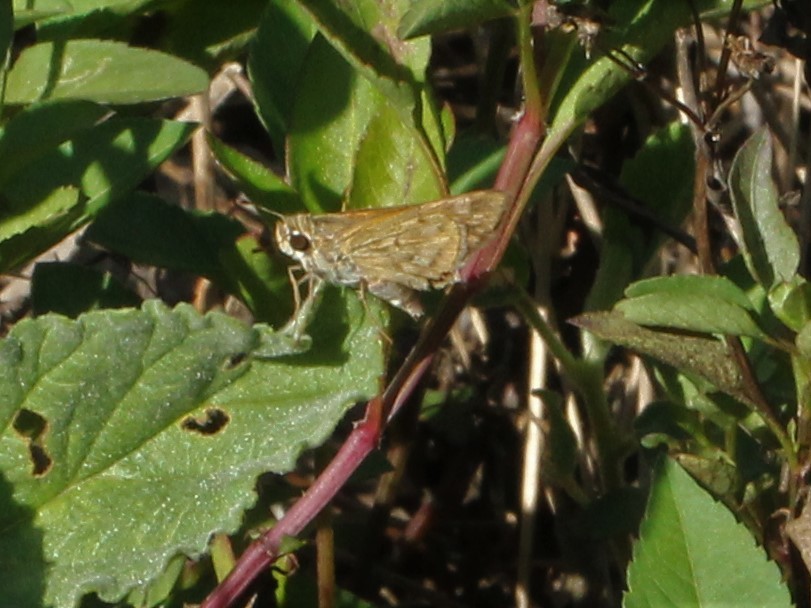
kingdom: Animalia
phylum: Arthropoda
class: Insecta
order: Lepidoptera
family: Hesperiidae
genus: Hylephila
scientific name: Hylephila phyleus
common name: Fiery skipper
